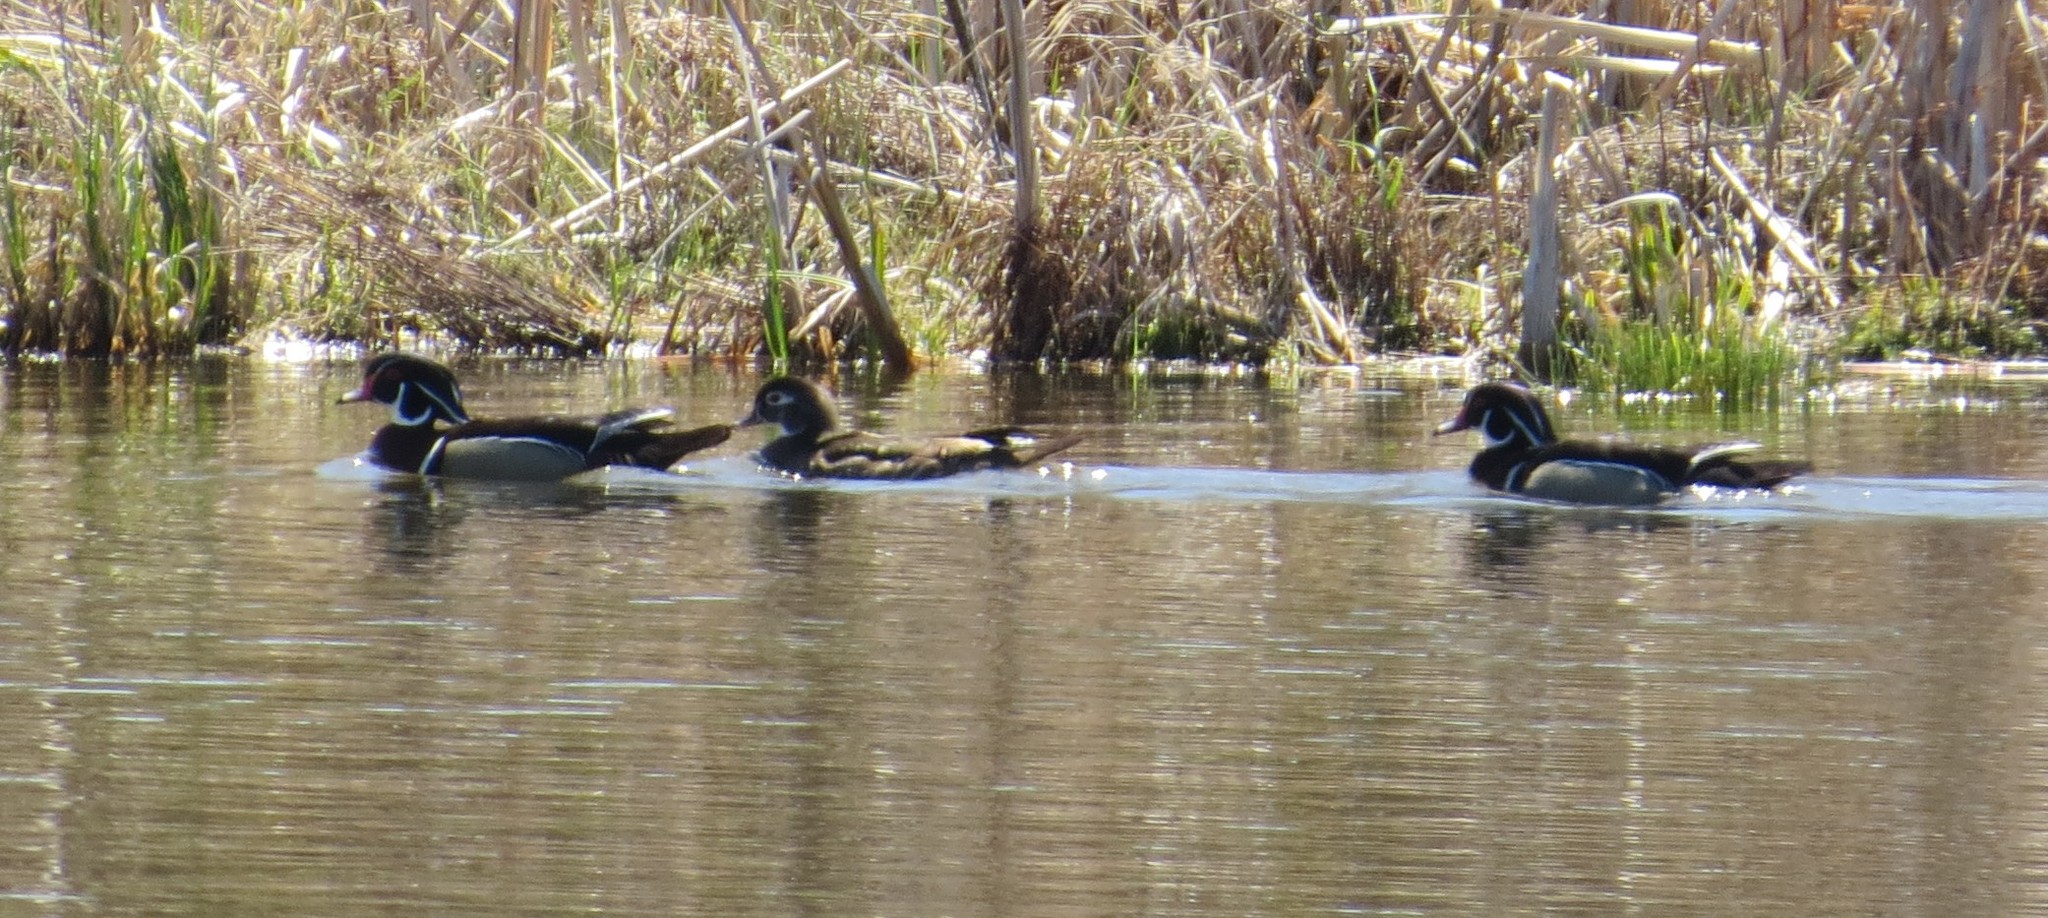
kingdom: Animalia
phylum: Chordata
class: Aves
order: Anseriformes
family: Anatidae
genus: Aix
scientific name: Aix sponsa
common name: Wood duck
